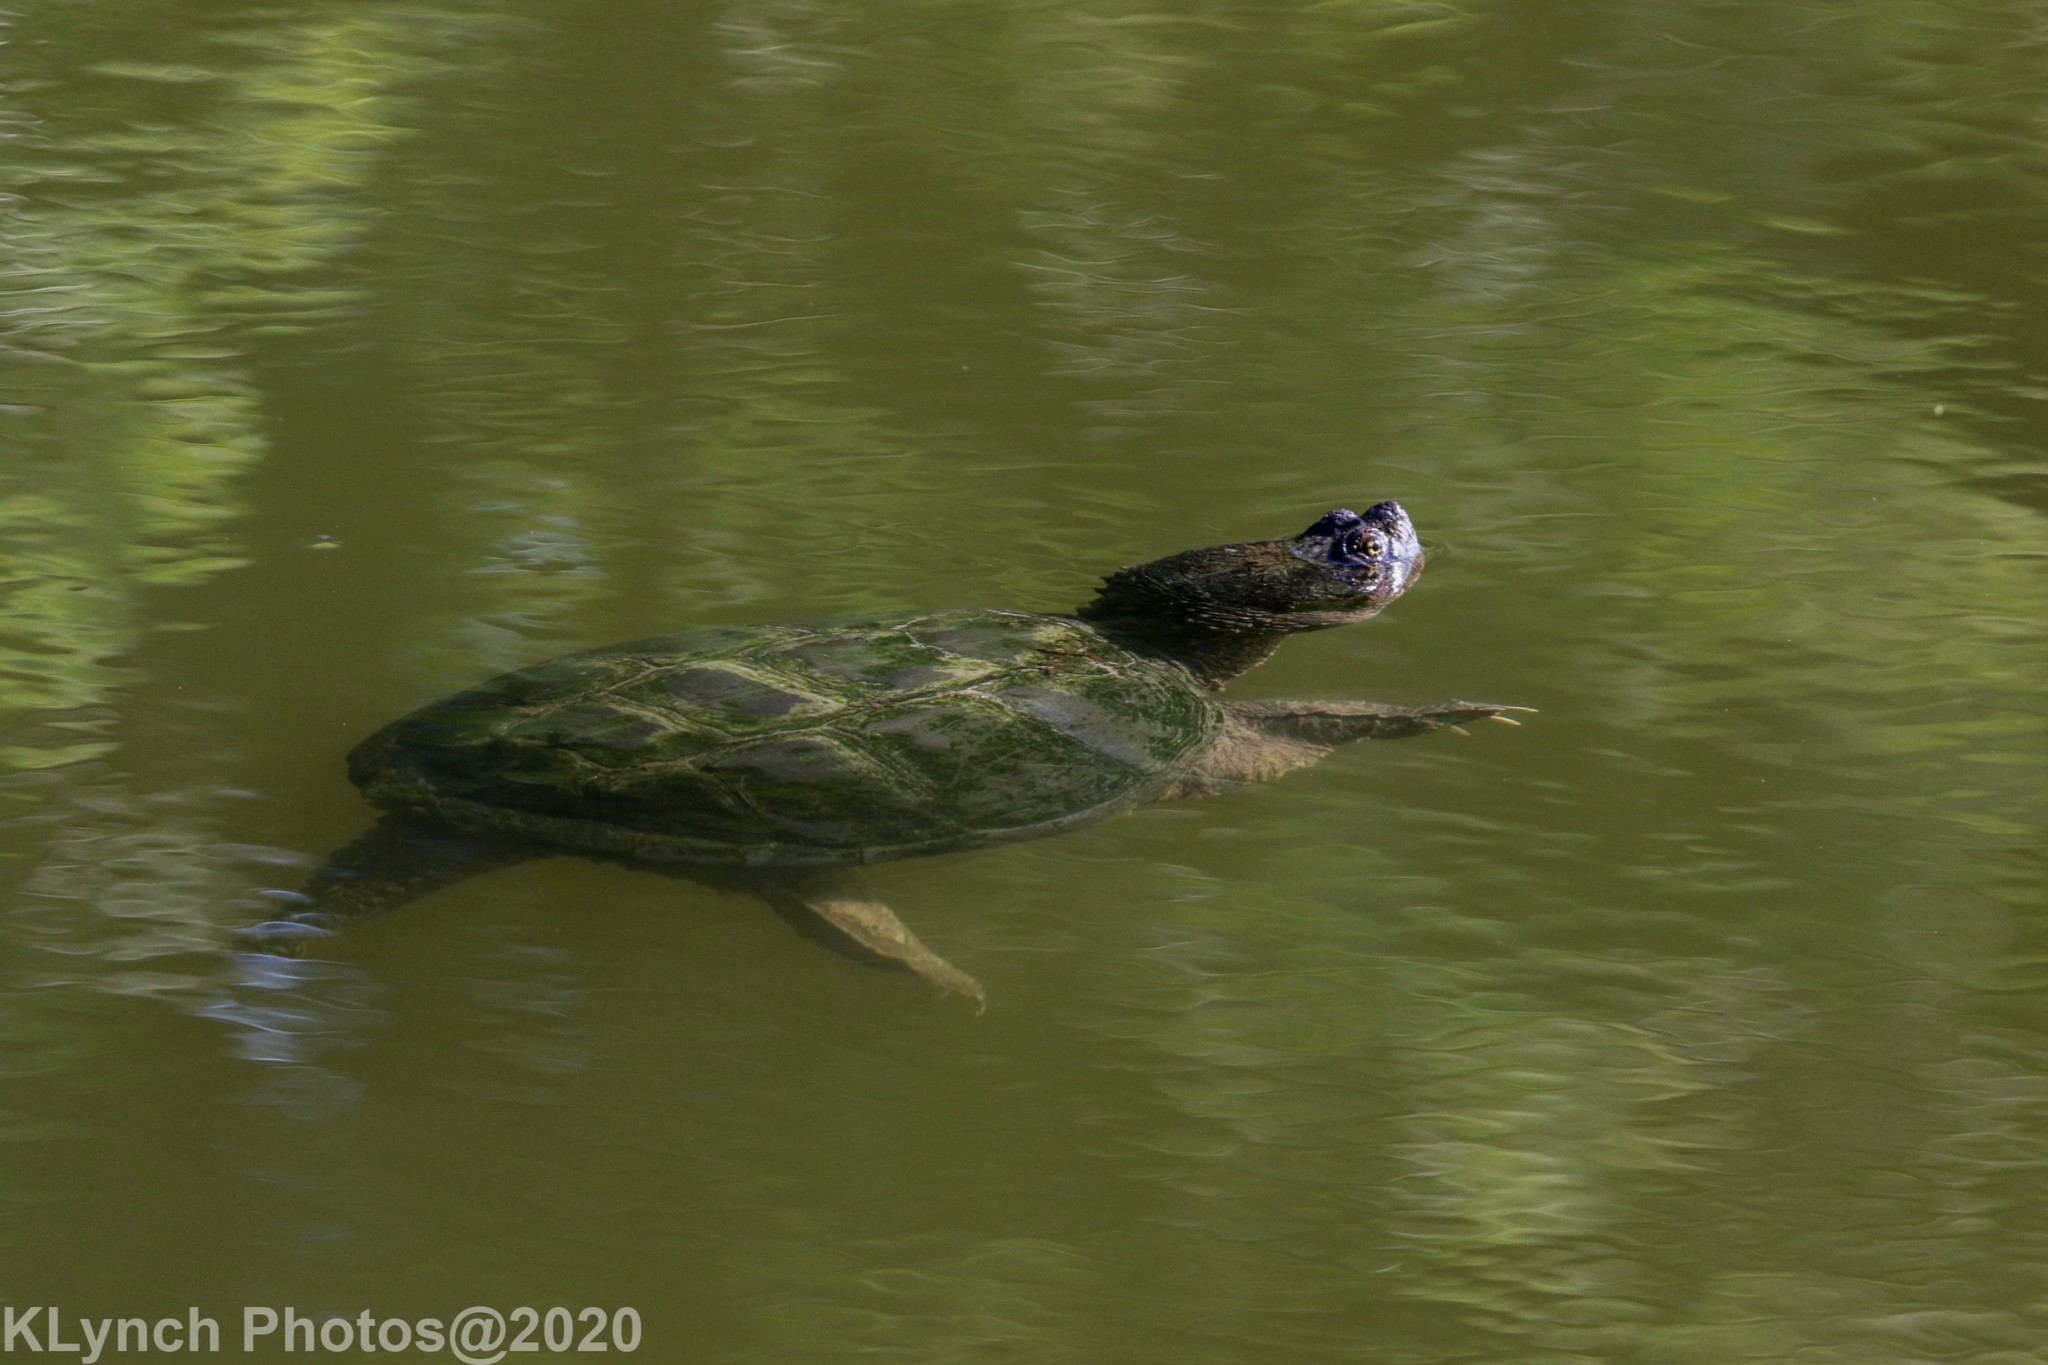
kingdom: Animalia
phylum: Chordata
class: Testudines
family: Chelydridae
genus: Chelydra
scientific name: Chelydra serpentina
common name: Common snapping turtle
